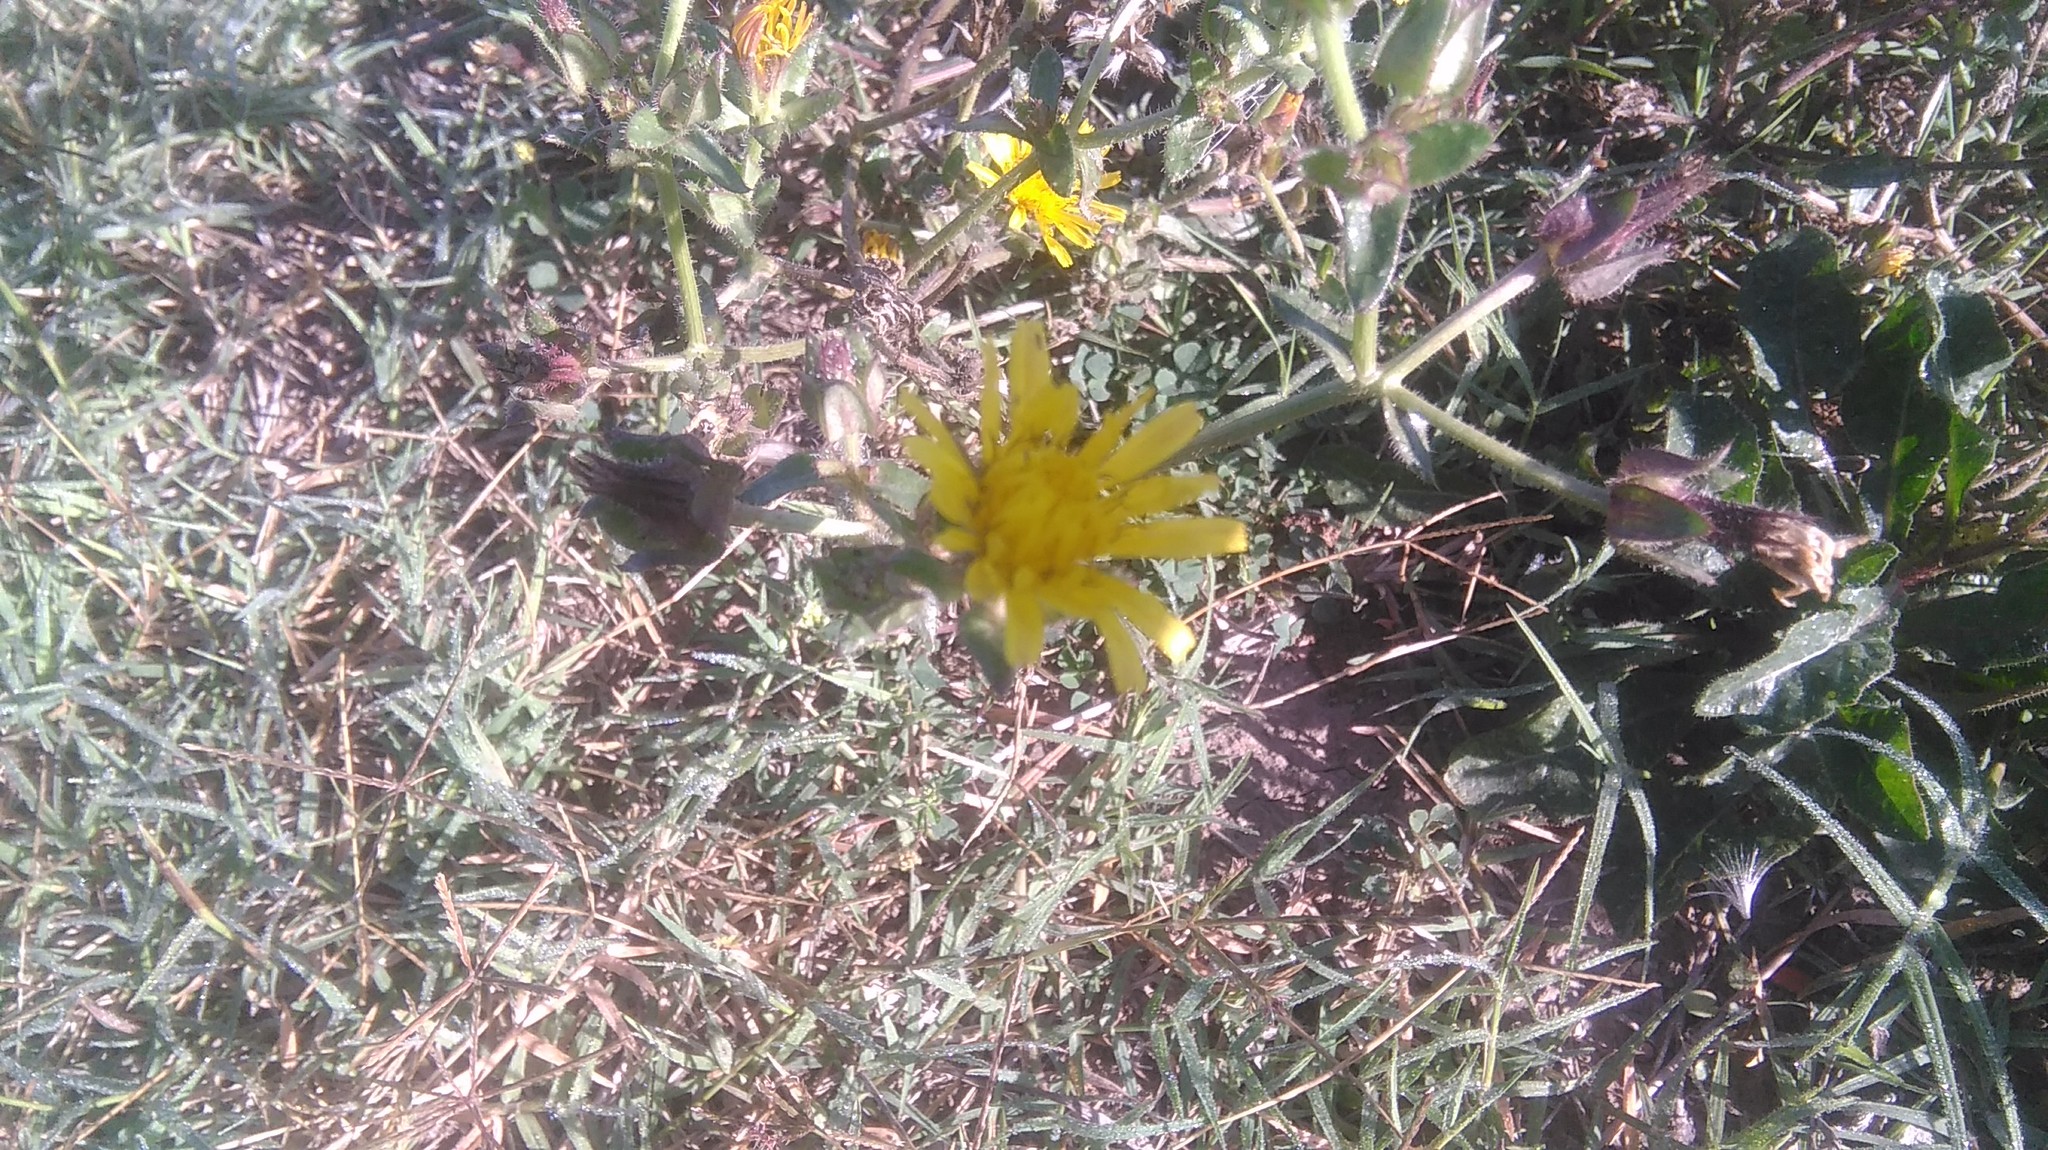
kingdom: Plantae
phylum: Tracheophyta
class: Magnoliopsida
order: Asterales
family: Asteraceae
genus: Helminthotheca
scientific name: Helminthotheca echioides
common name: Ox-tongue
